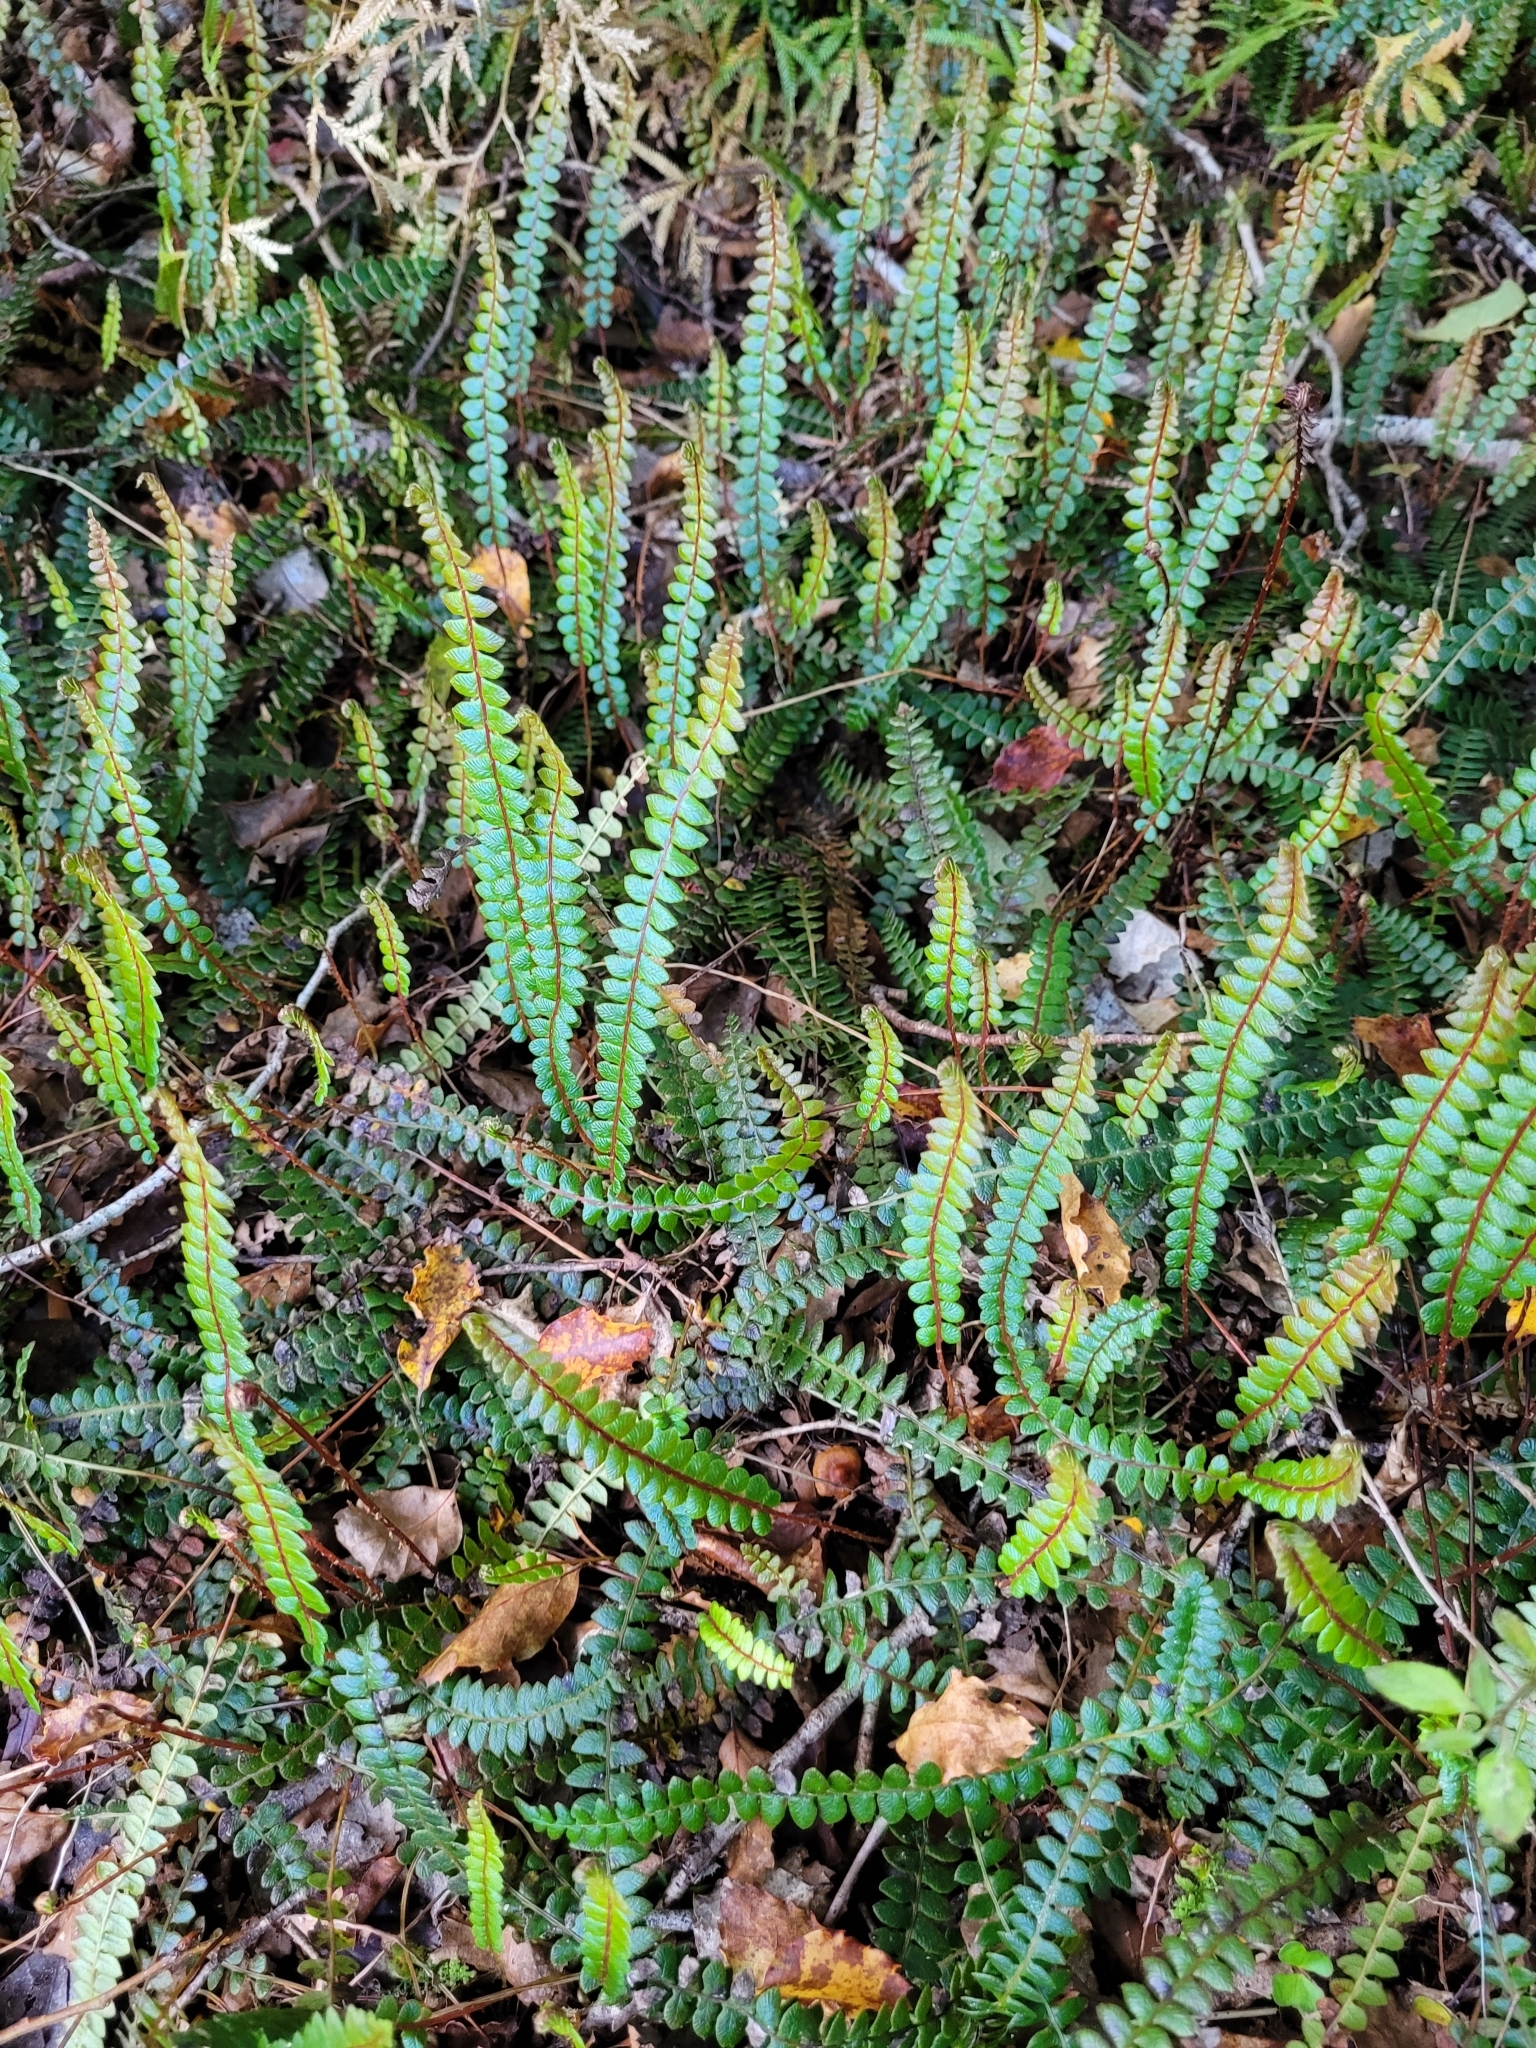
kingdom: Plantae
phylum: Tracheophyta
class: Polypodiopsida
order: Polypodiales
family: Blechnaceae
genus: Austroblechnum
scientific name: Austroblechnum penna-marina
